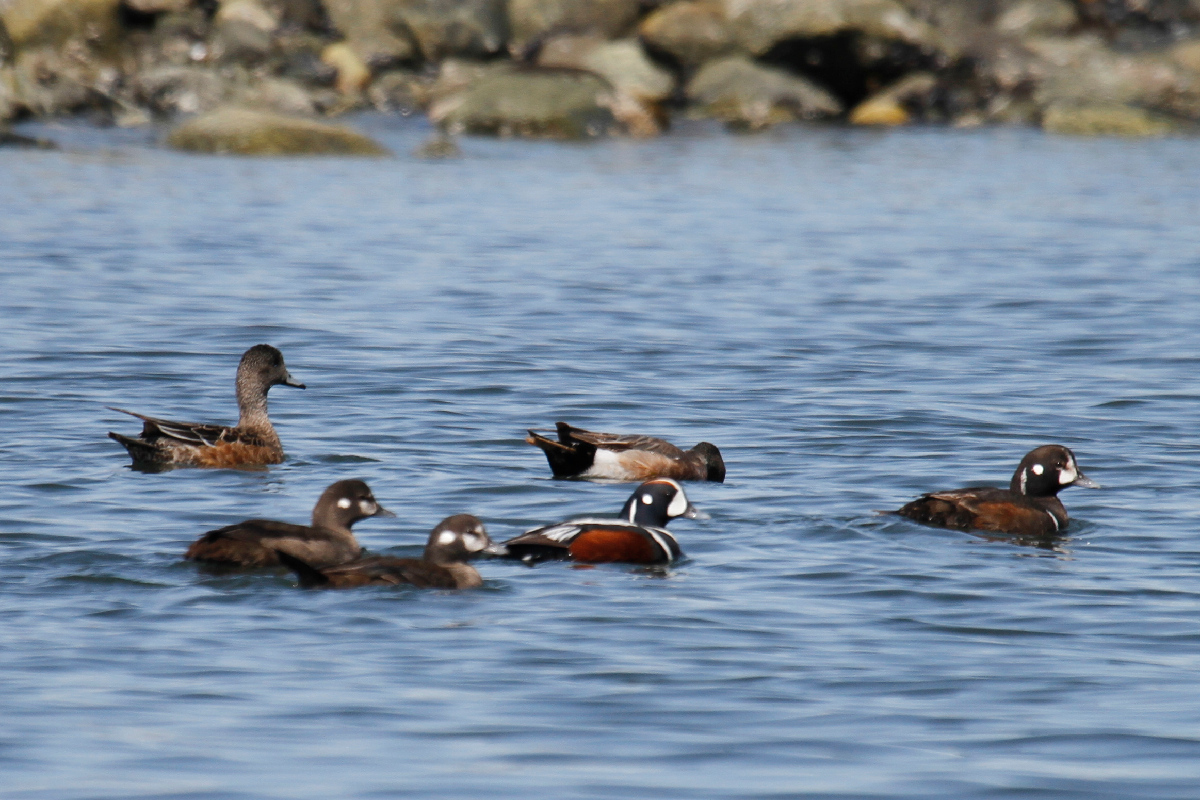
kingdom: Animalia
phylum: Chordata
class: Aves
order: Anseriformes
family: Anatidae
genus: Histrionicus
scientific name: Histrionicus histrionicus
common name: Harlequin duck
